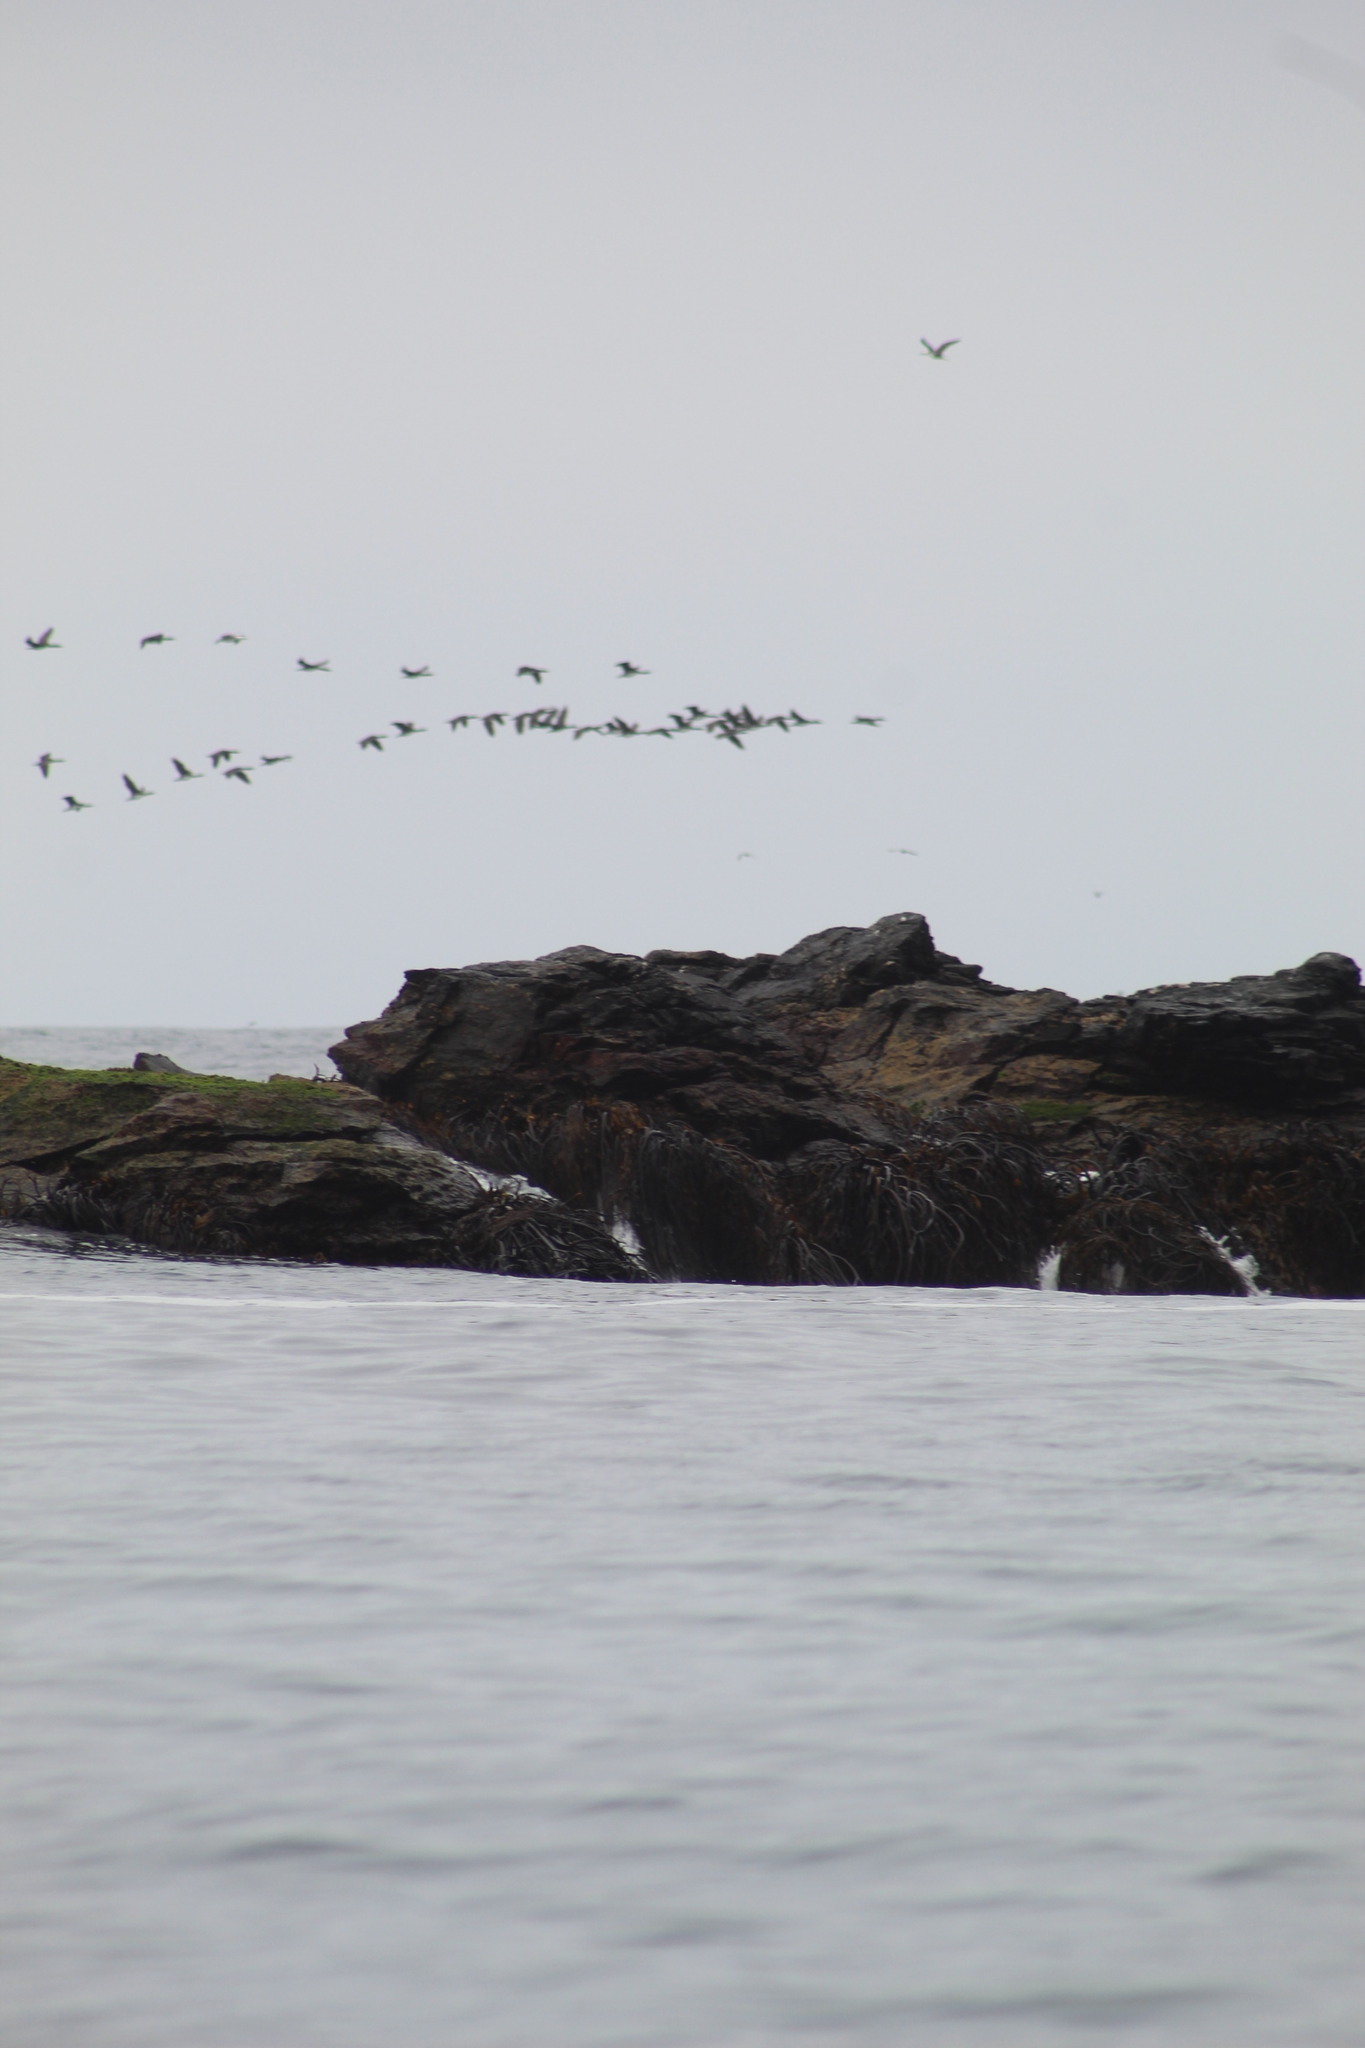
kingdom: Animalia
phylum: Chordata
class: Aves
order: Suliformes
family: Phalacrocoracidae
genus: Leucocarbo
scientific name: Leucocarbo bougainvillii
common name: Guanay cormorant
